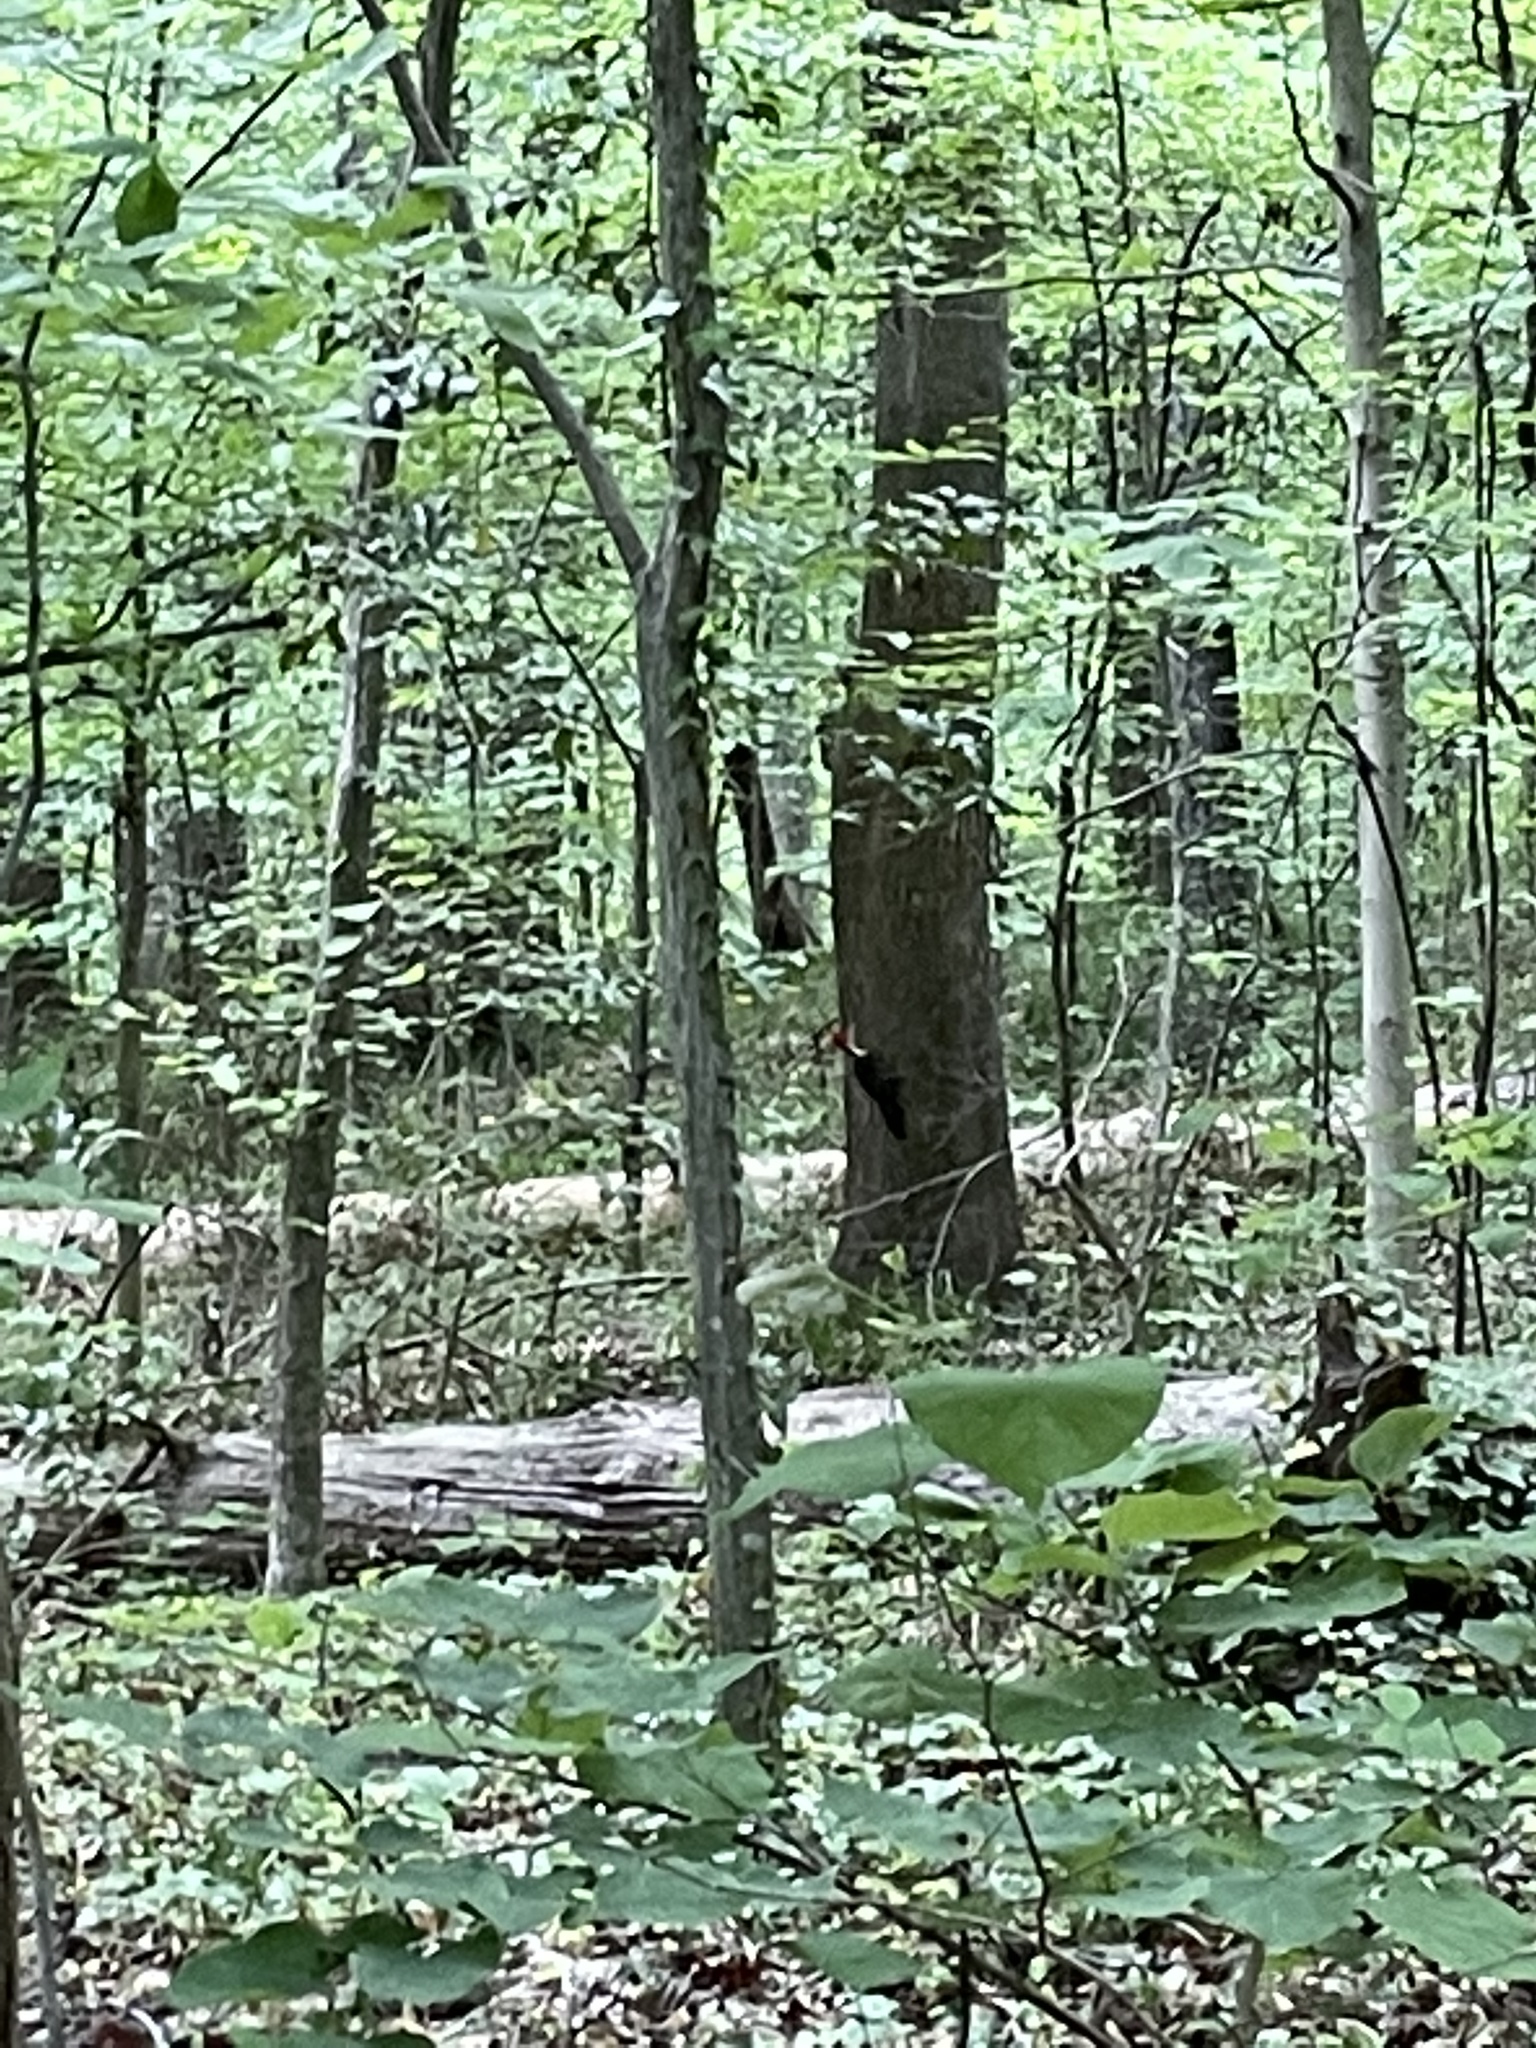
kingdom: Animalia
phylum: Chordata
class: Aves
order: Piciformes
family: Picidae
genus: Dryocopus
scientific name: Dryocopus pileatus
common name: Pileated woodpecker
